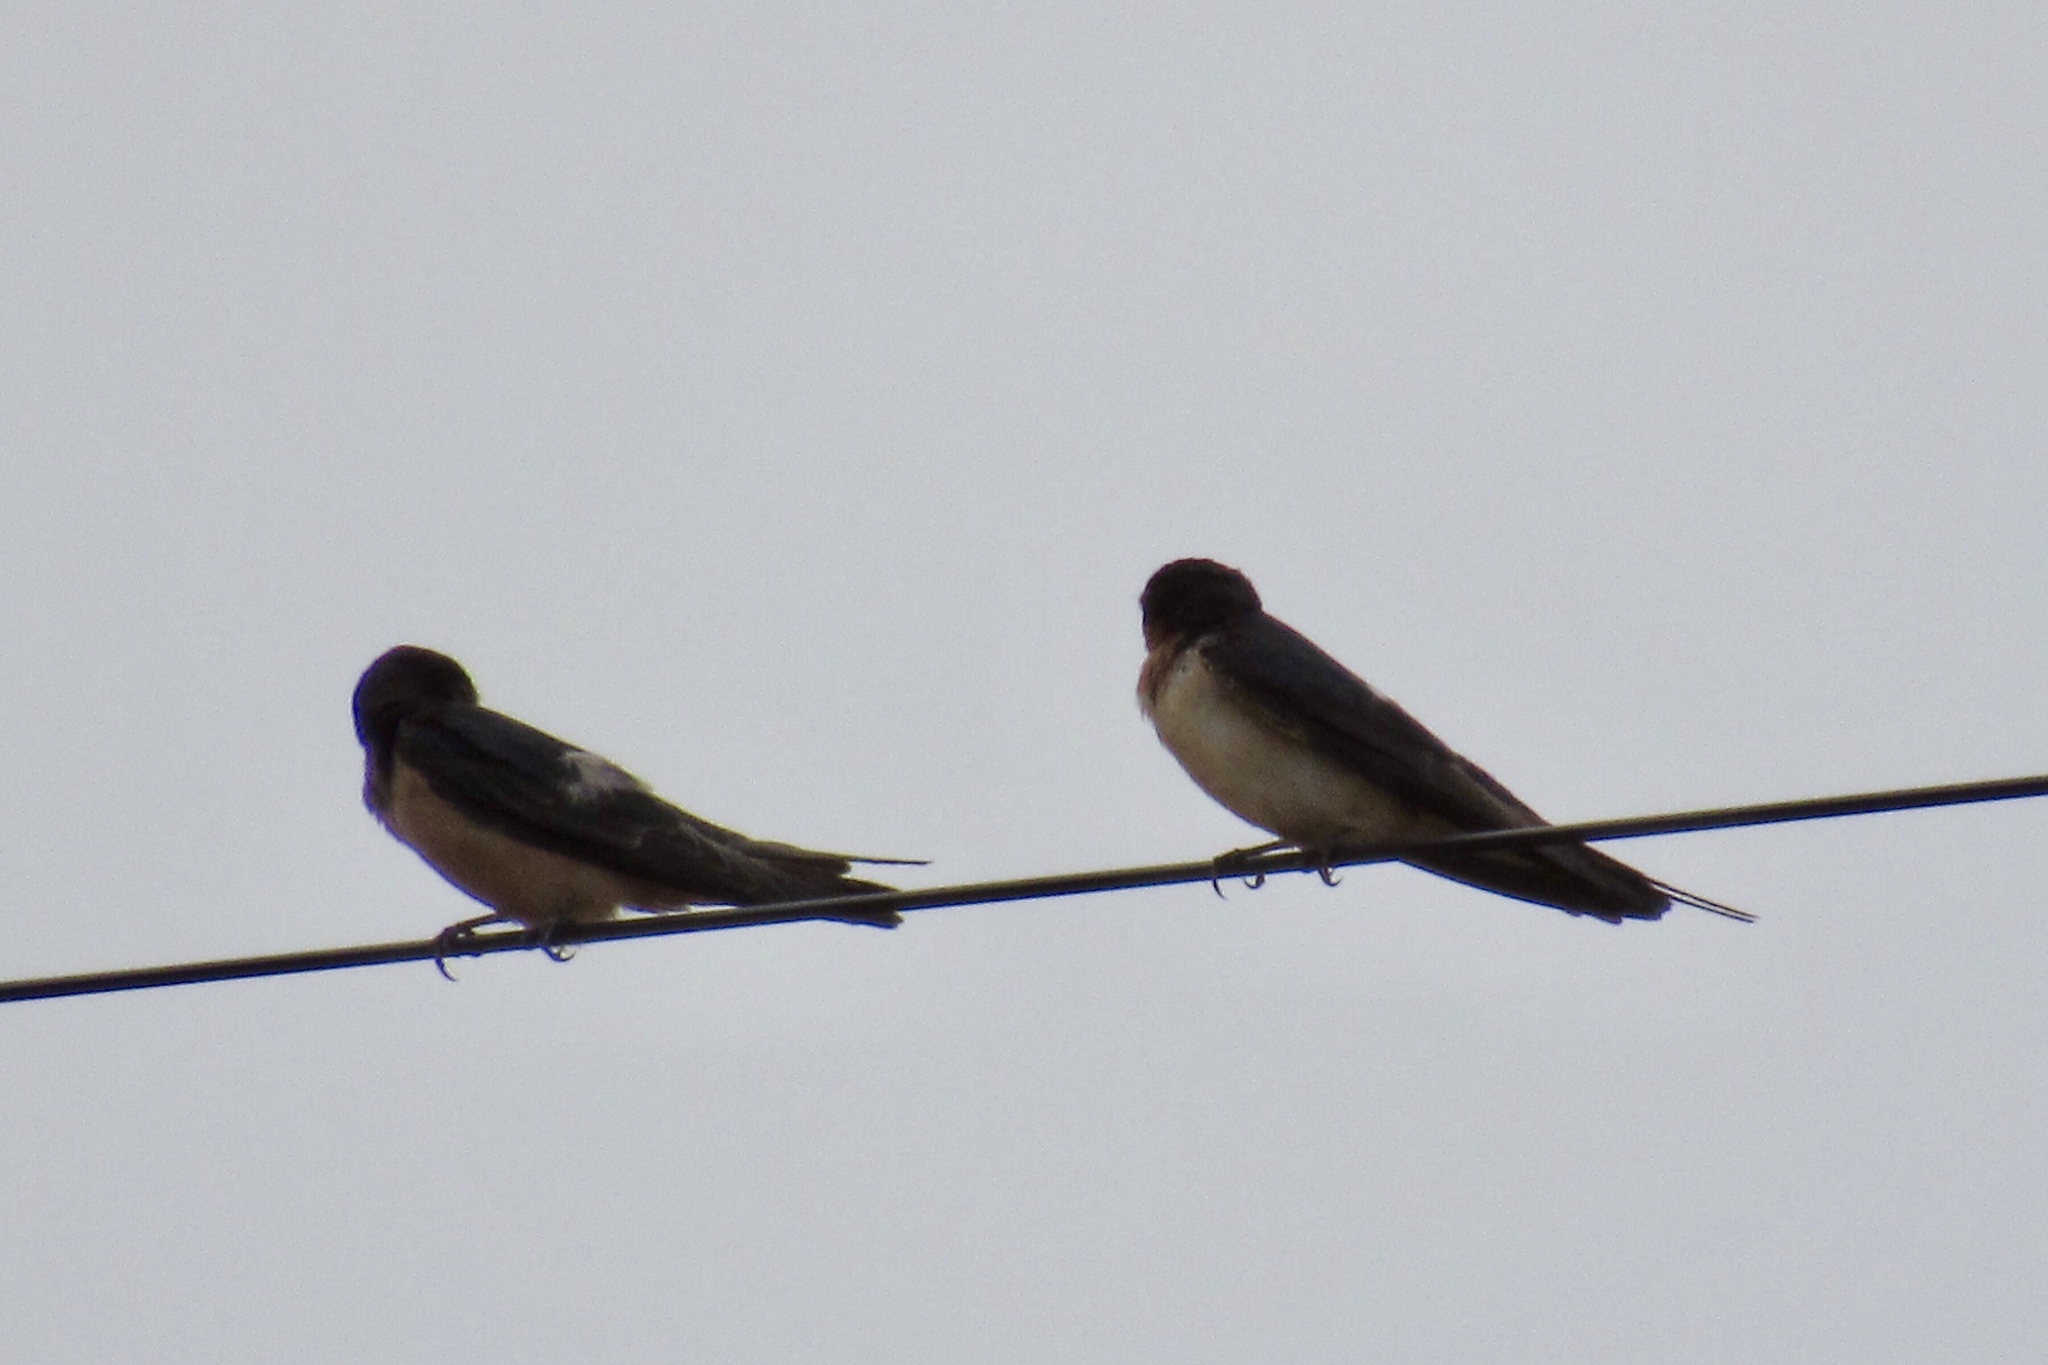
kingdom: Animalia
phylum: Chordata
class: Aves
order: Passeriformes
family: Hirundinidae
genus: Hirundo
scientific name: Hirundo rustica
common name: Barn swallow
